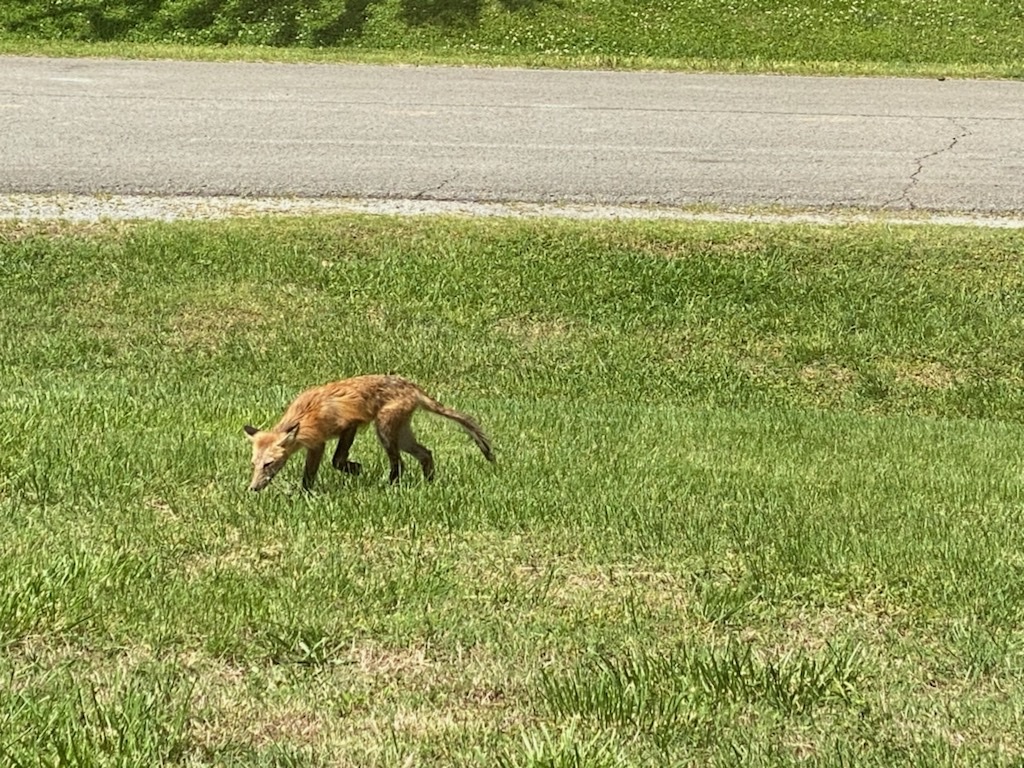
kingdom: Animalia
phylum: Chordata
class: Mammalia
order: Carnivora
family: Canidae
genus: Vulpes
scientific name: Vulpes vulpes
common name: Red fox
